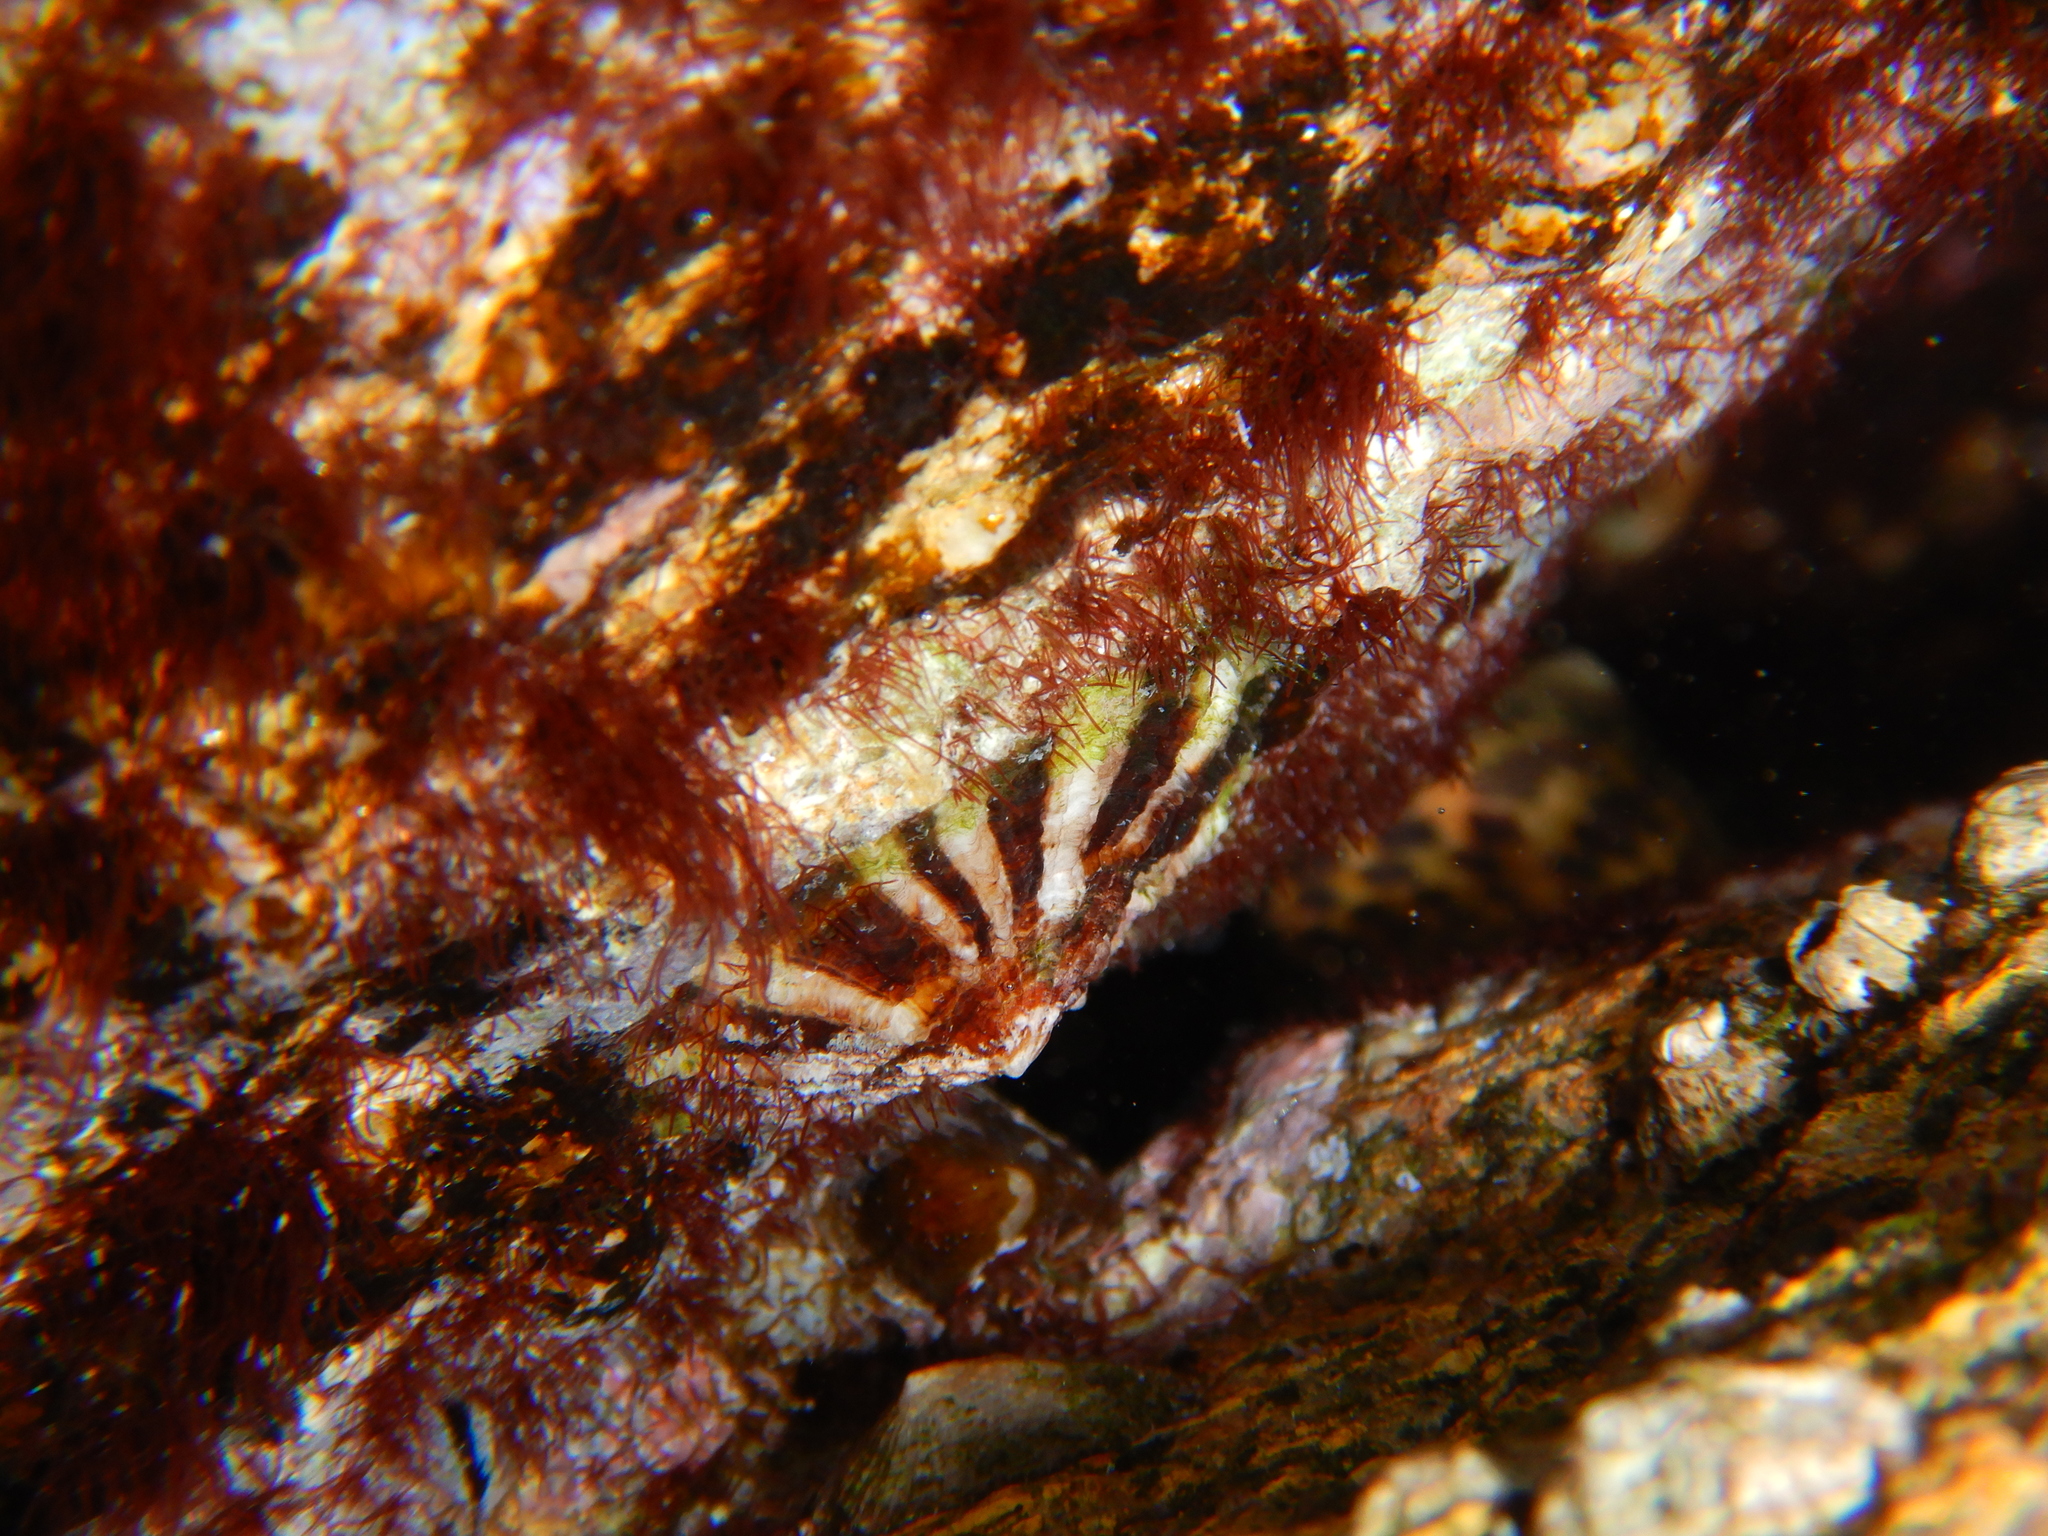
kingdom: Animalia
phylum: Mollusca
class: Gastropoda
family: Patellidae
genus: Patella
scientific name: Patella ulyssiponensis
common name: China limpet
